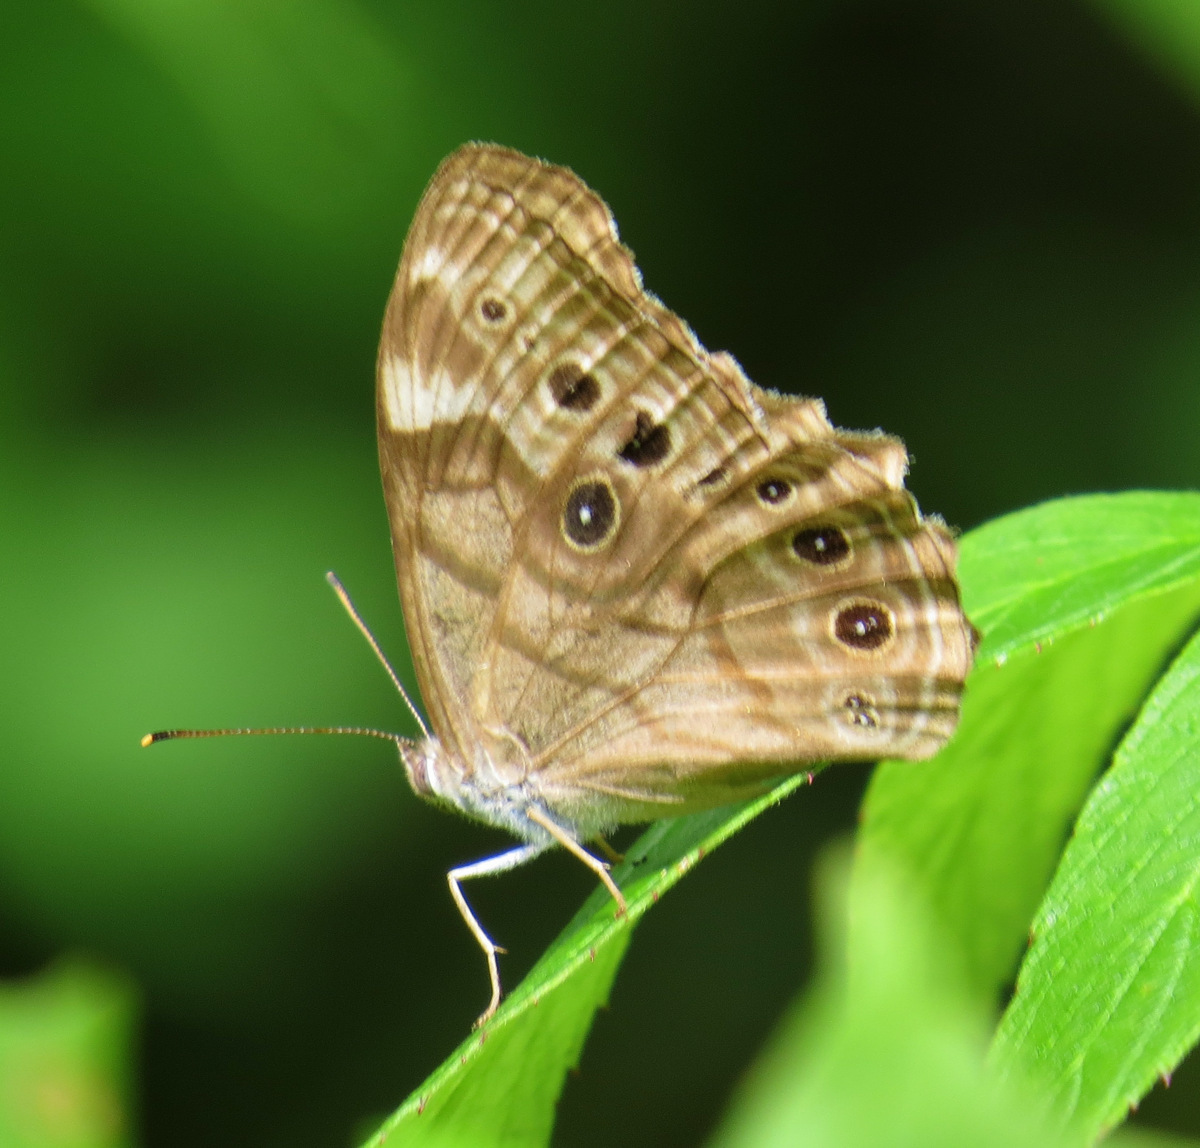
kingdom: Animalia
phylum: Arthropoda
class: Insecta
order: Lepidoptera
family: Nymphalidae
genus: Lethe
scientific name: Lethe anthedon
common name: Northern pearly-eye
